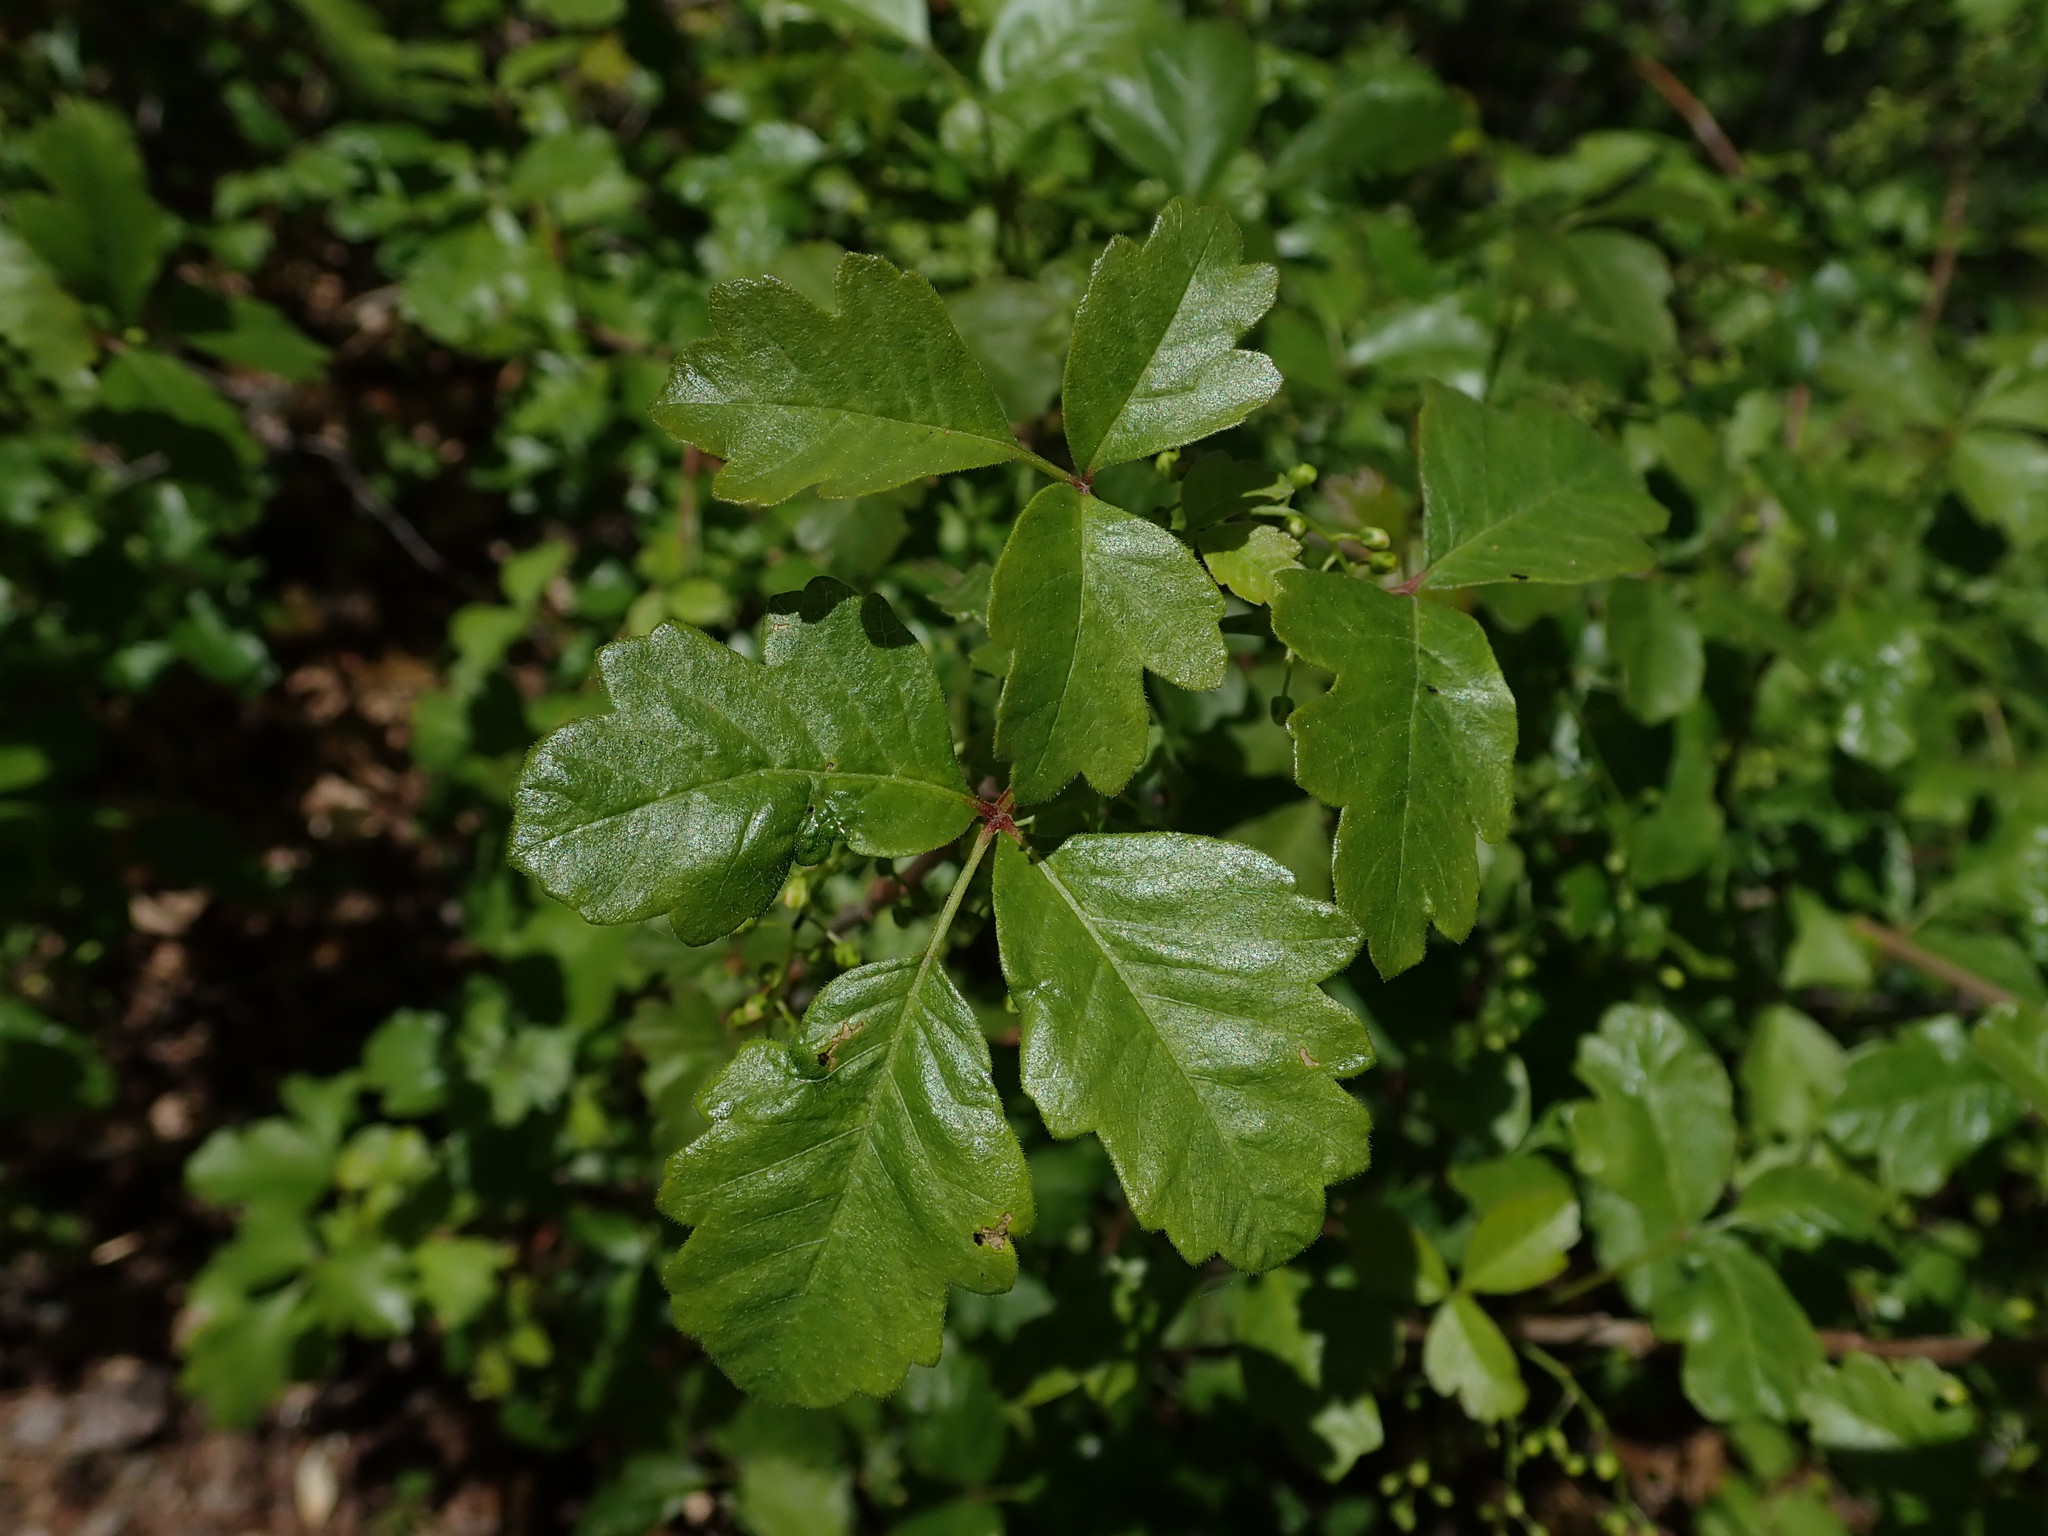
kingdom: Plantae
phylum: Tracheophyta
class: Magnoliopsida
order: Sapindales
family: Anacardiaceae
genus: Toxicodendron
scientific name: Toxicodendron diversilobum
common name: Pacific poison-oak
